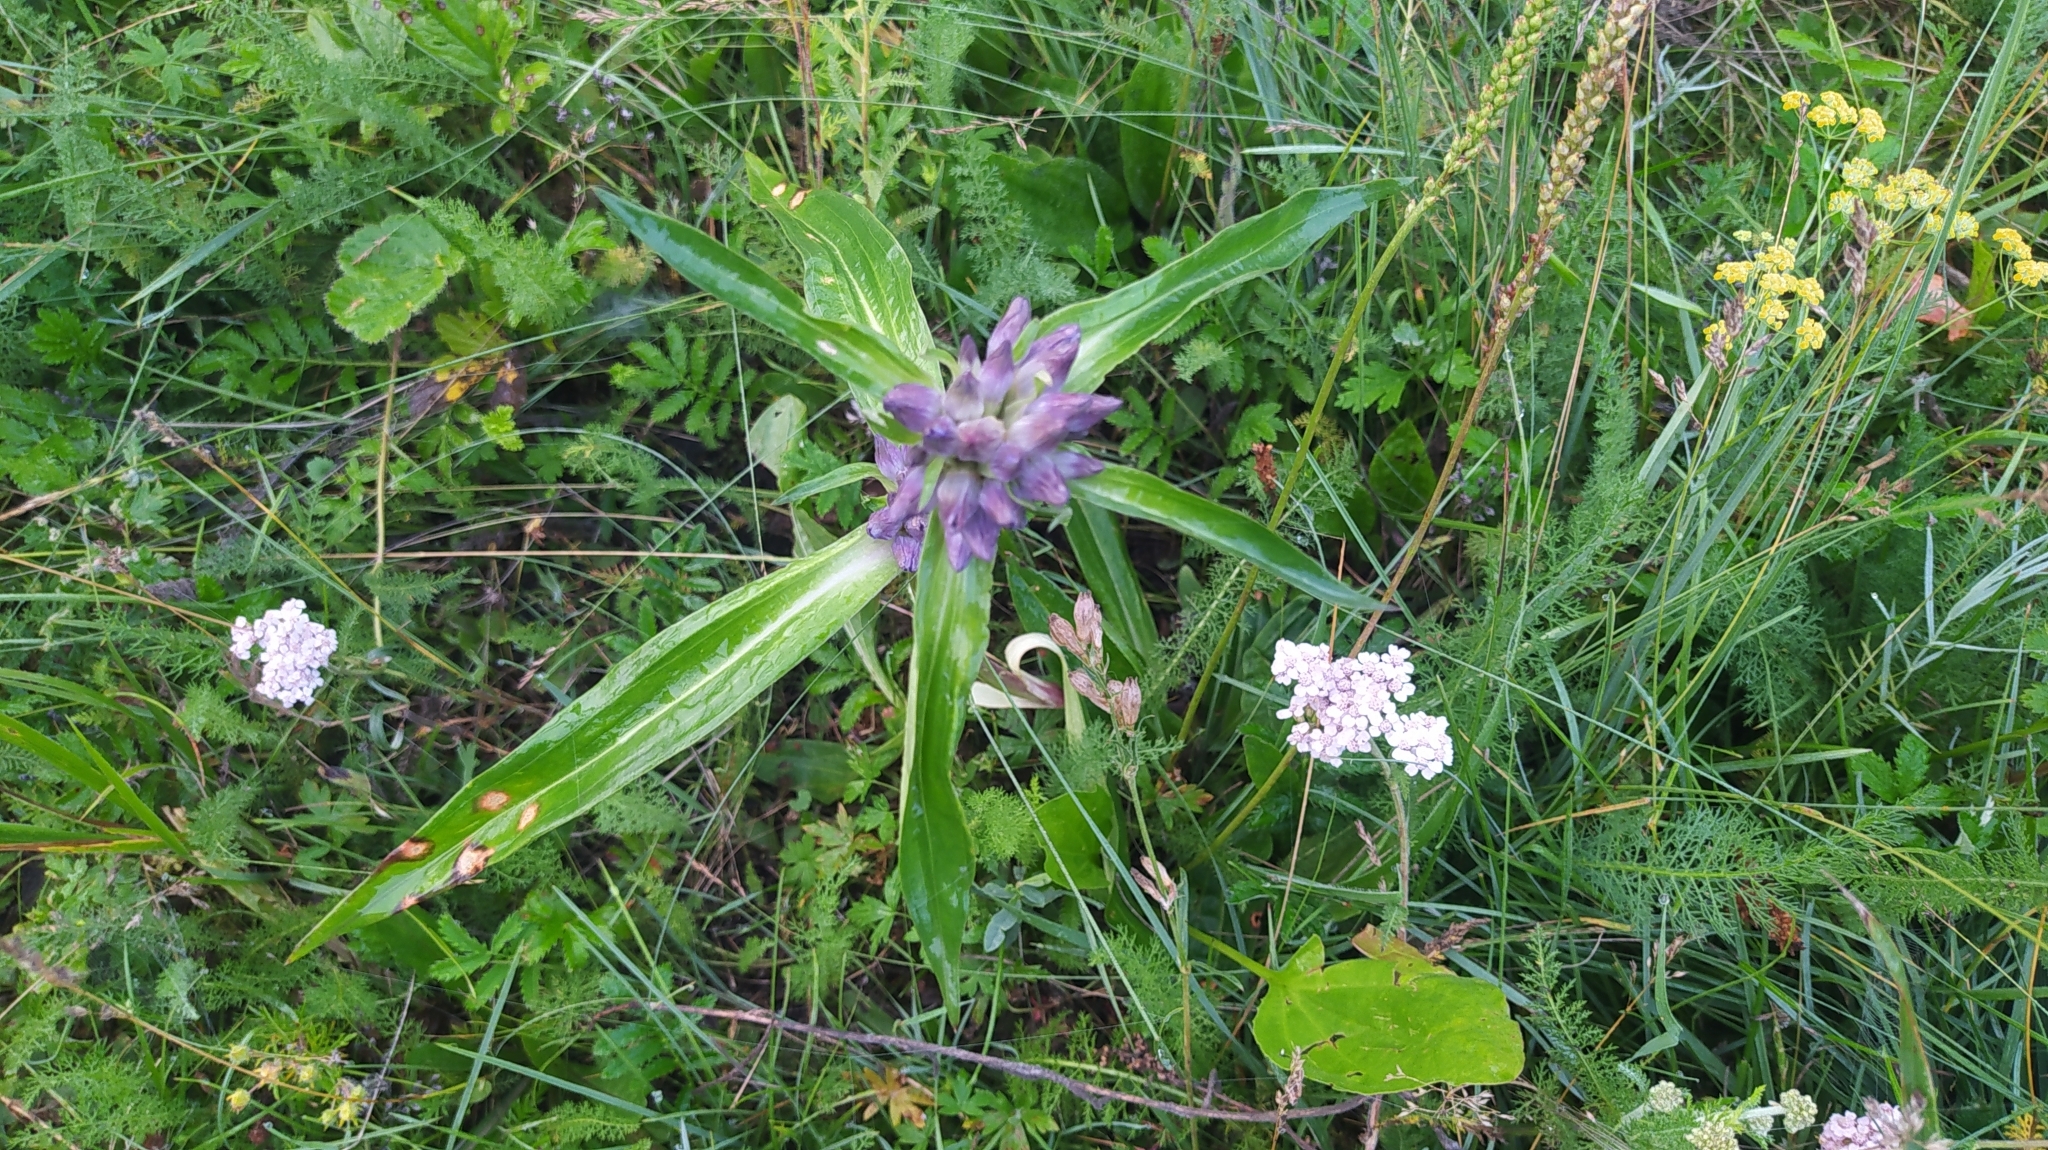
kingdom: Plantae
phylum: Tracheophyta
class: Magnoliopsida
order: Gentianales
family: Gentianaceae
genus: Gentiana
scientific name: Gentiana macrophylla
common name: Large-leaf gentian
